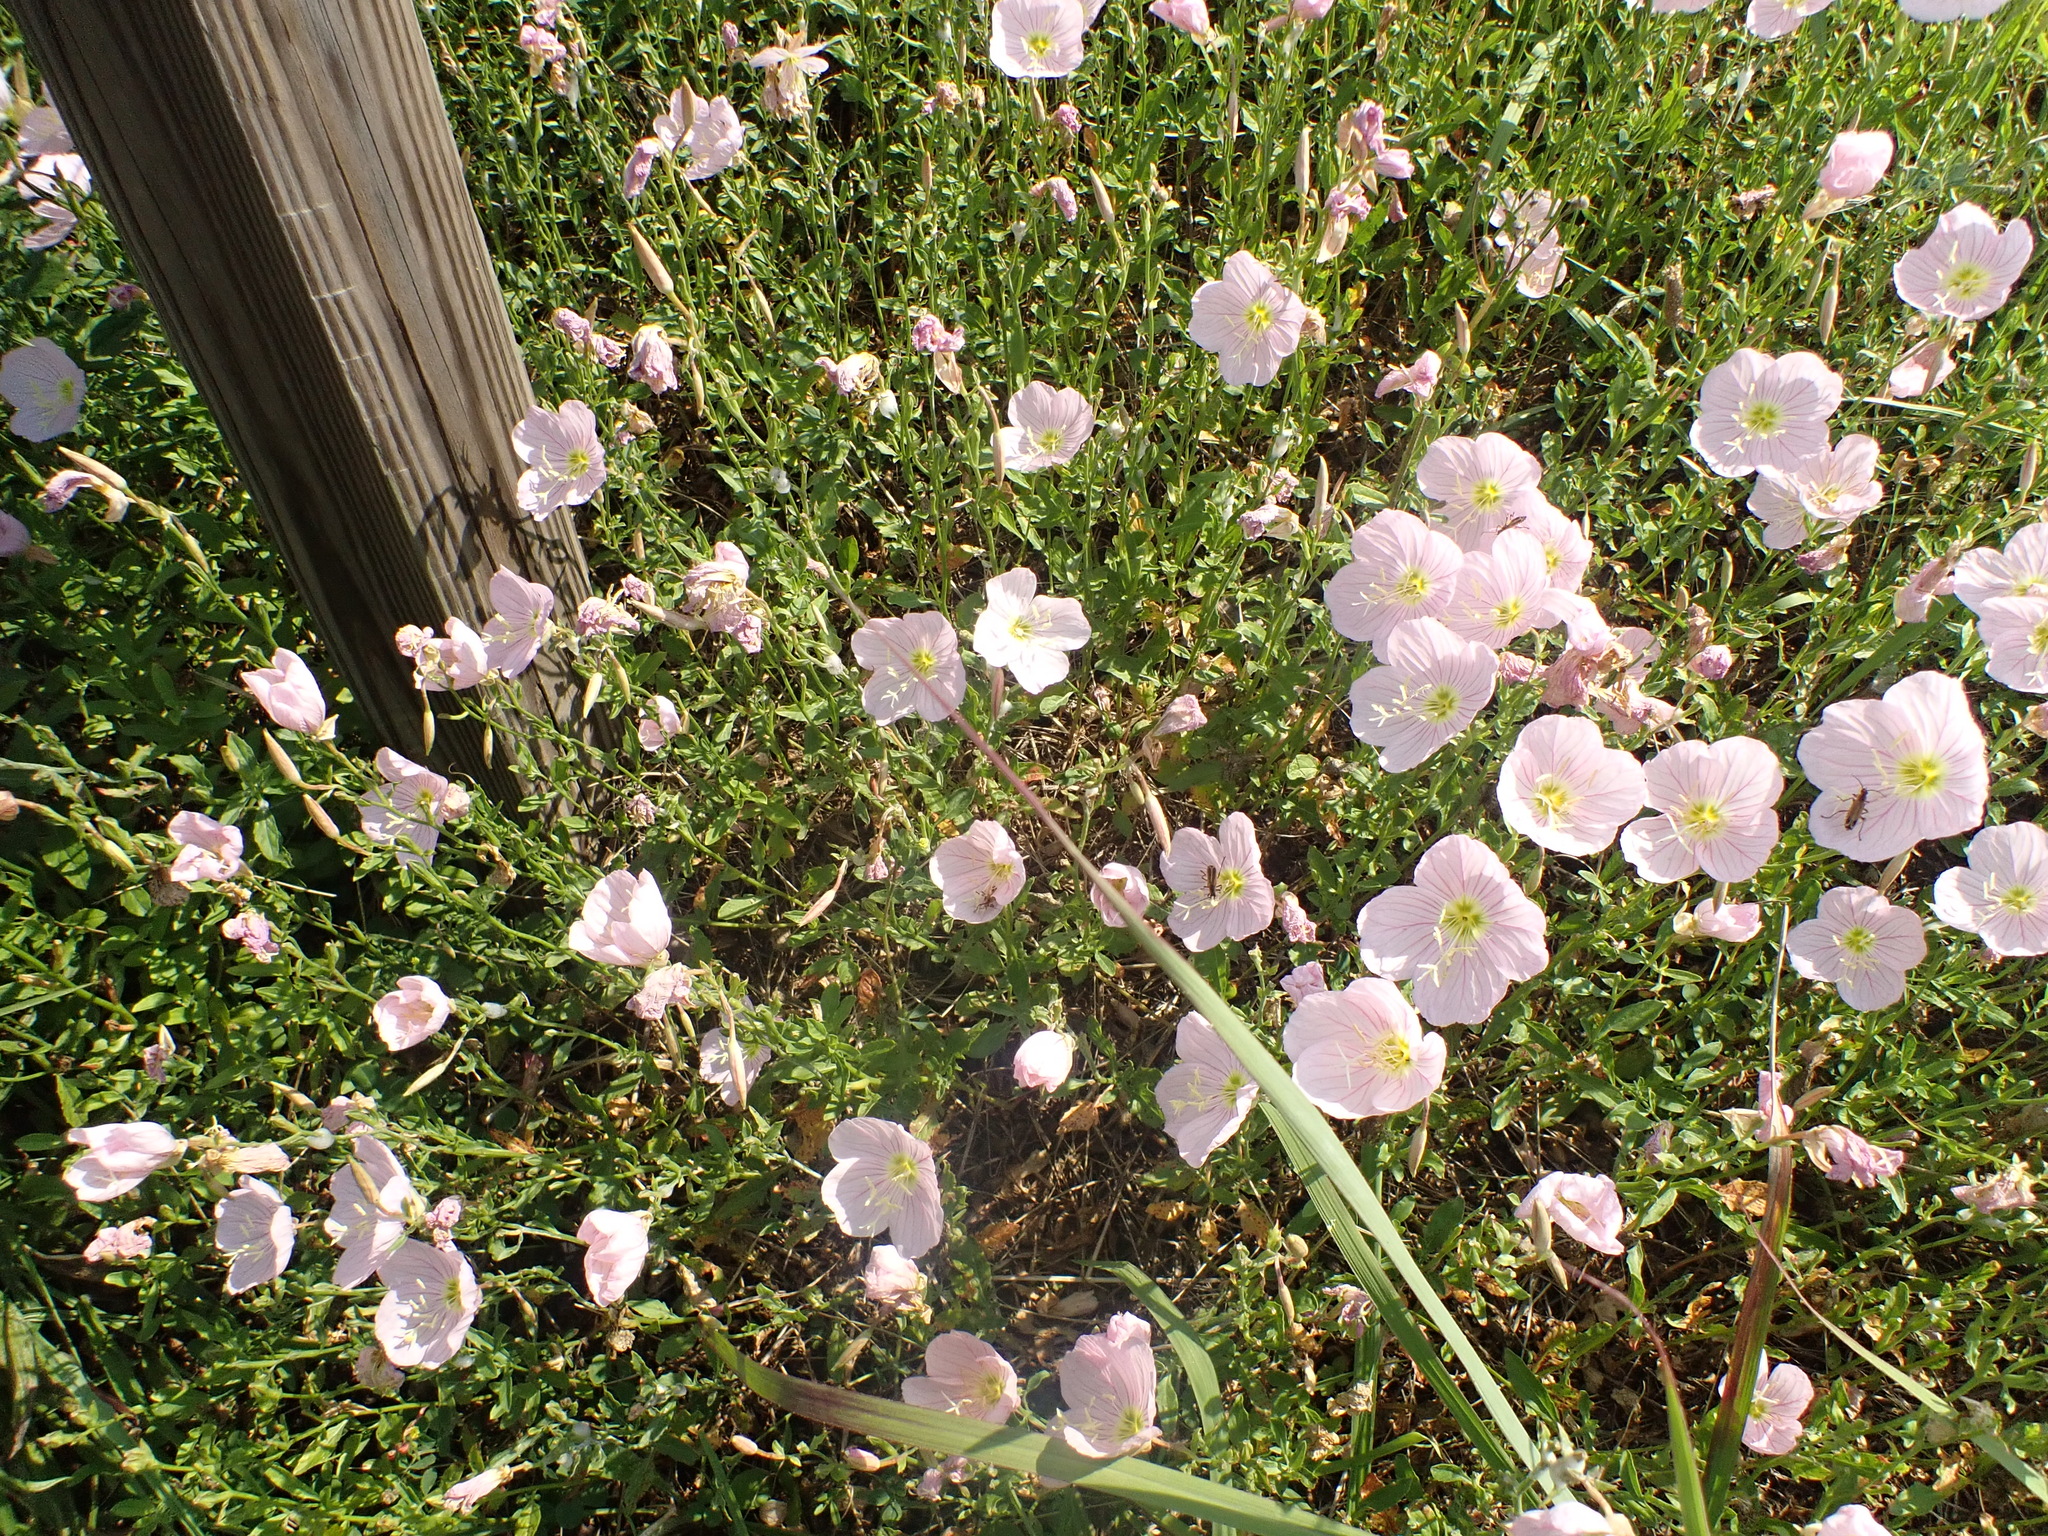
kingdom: Plantae
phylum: Tracheophyta
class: Magnoliopsida
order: Myrtales
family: Onagraceae
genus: Oenothera
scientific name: Oenothera speciosa
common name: White evening-primrose
